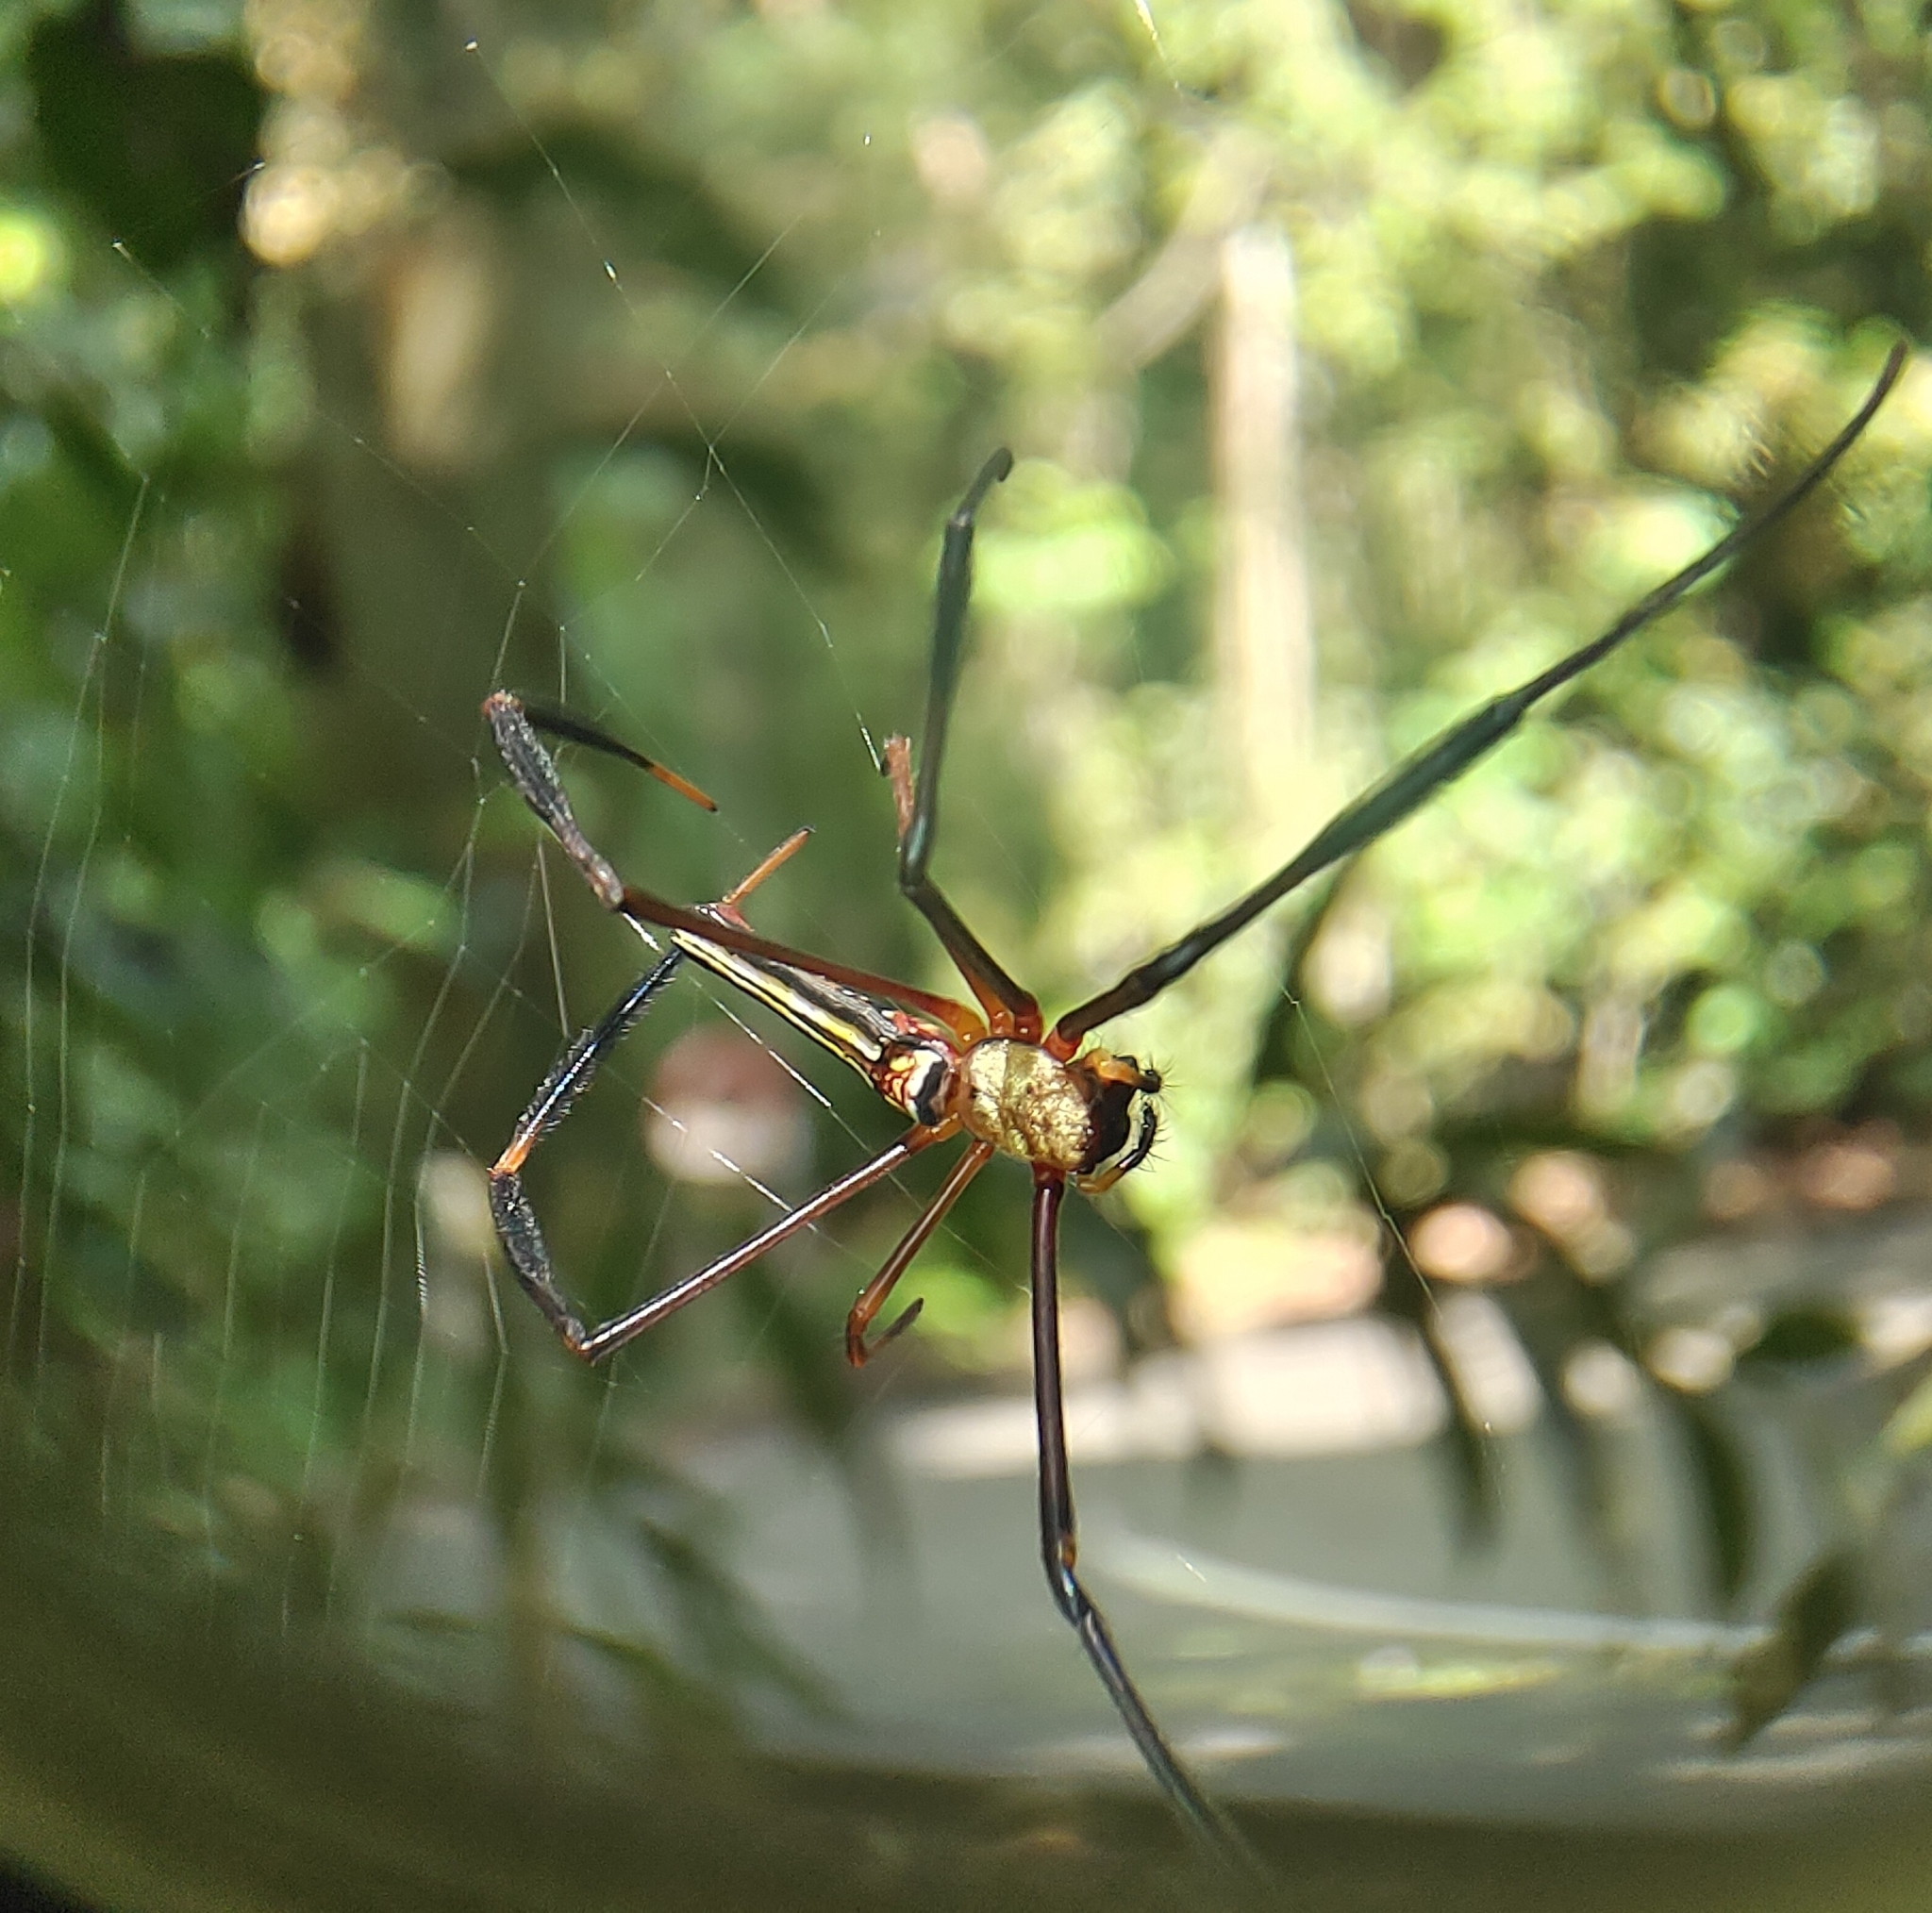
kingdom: Animalia
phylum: Arthropoda
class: Arachnida
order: Araneae
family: Araneidae
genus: Nephila
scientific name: Nephila pilipes
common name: Giant golden orb weaver
